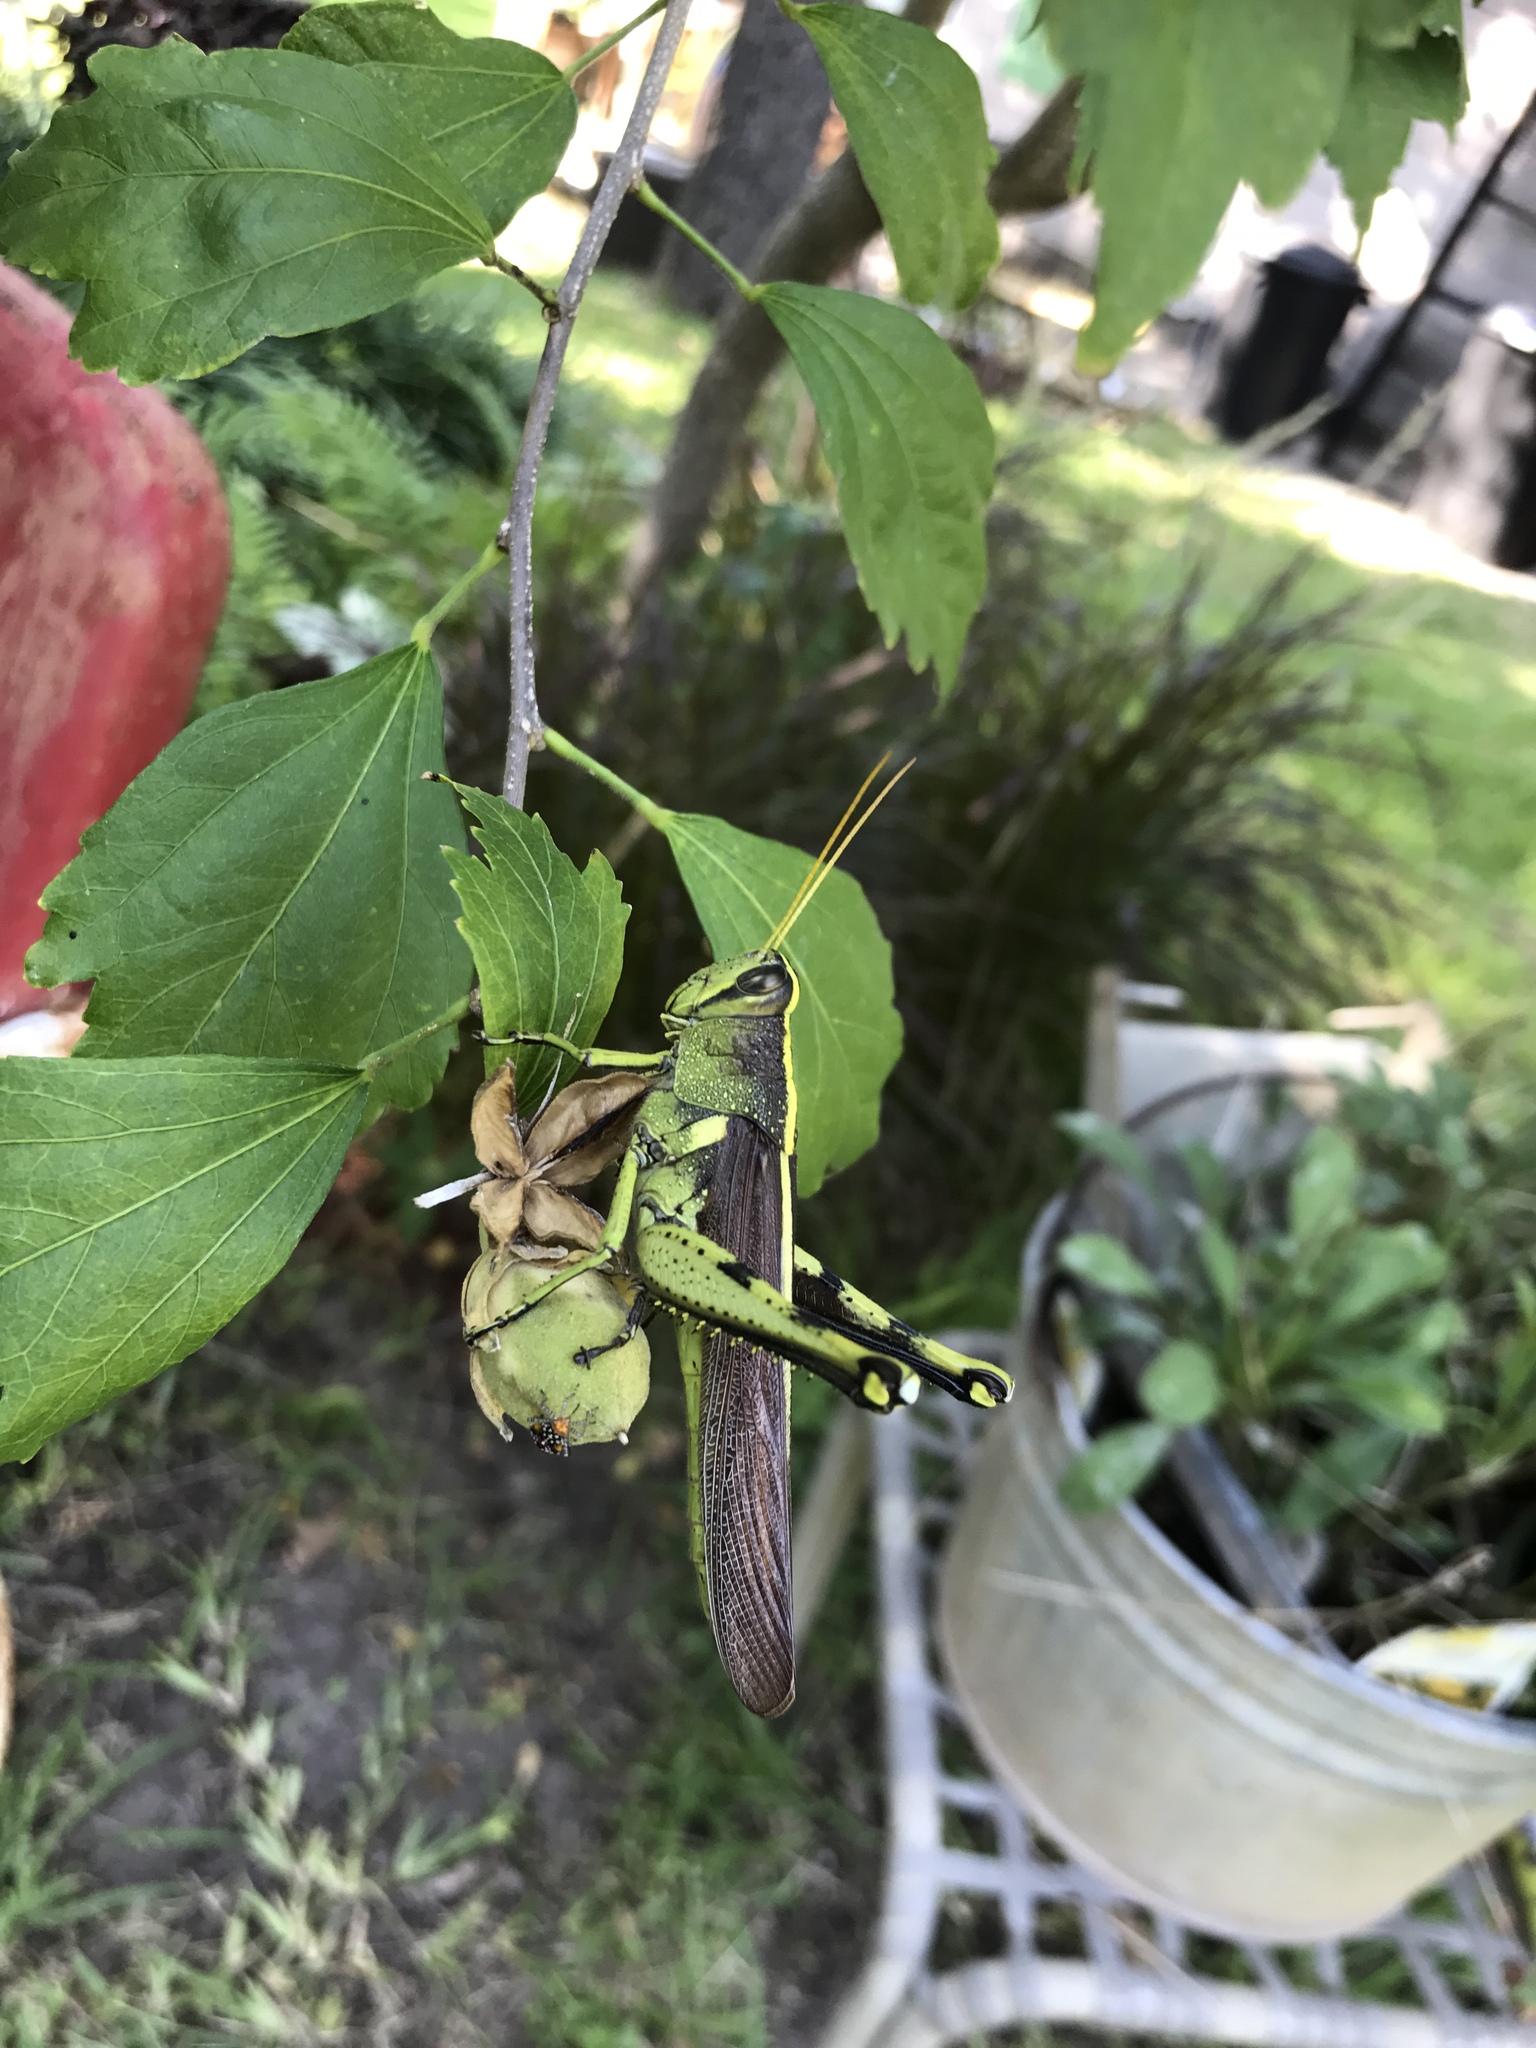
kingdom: Animalia
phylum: Arthropoda
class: Insecta
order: Orthoptera
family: Acrididae
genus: Schistocerca
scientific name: Schistocerca obscura
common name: Obscure bird grasshopper
